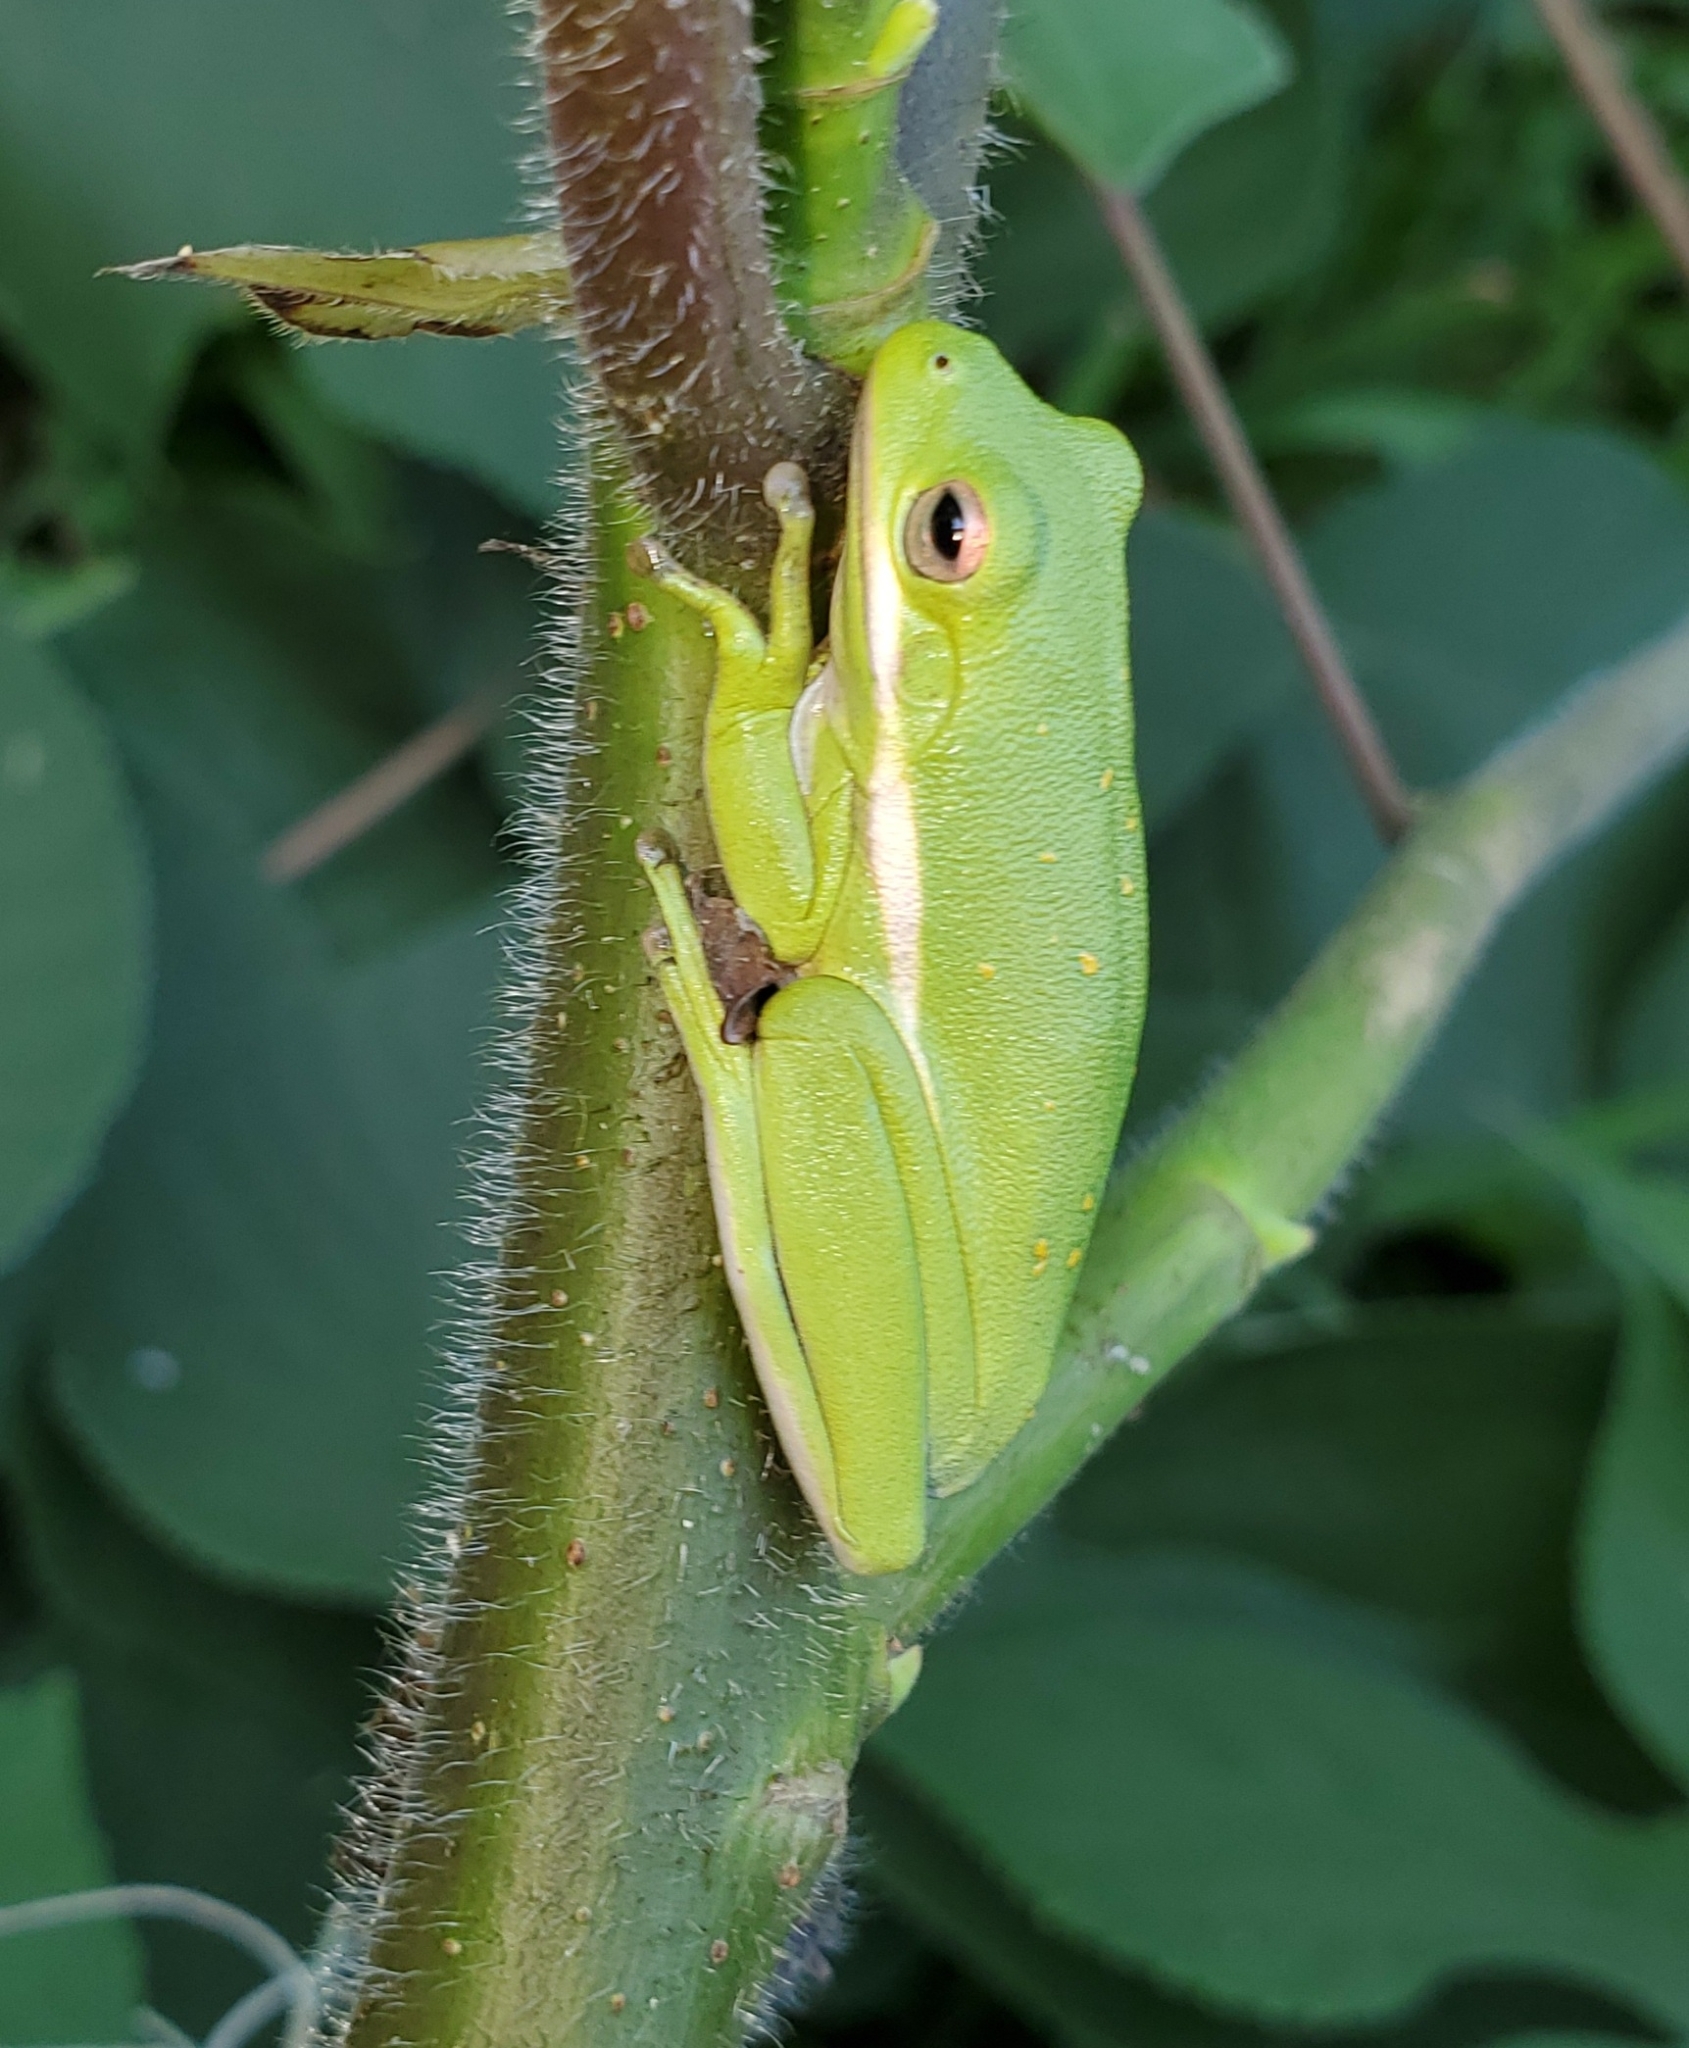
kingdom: Animalia
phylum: Chordata
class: Amphibia
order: Anura
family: Hylidae
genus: Dryophytes
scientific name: Dryophytes cinereus
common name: Green treefrog
